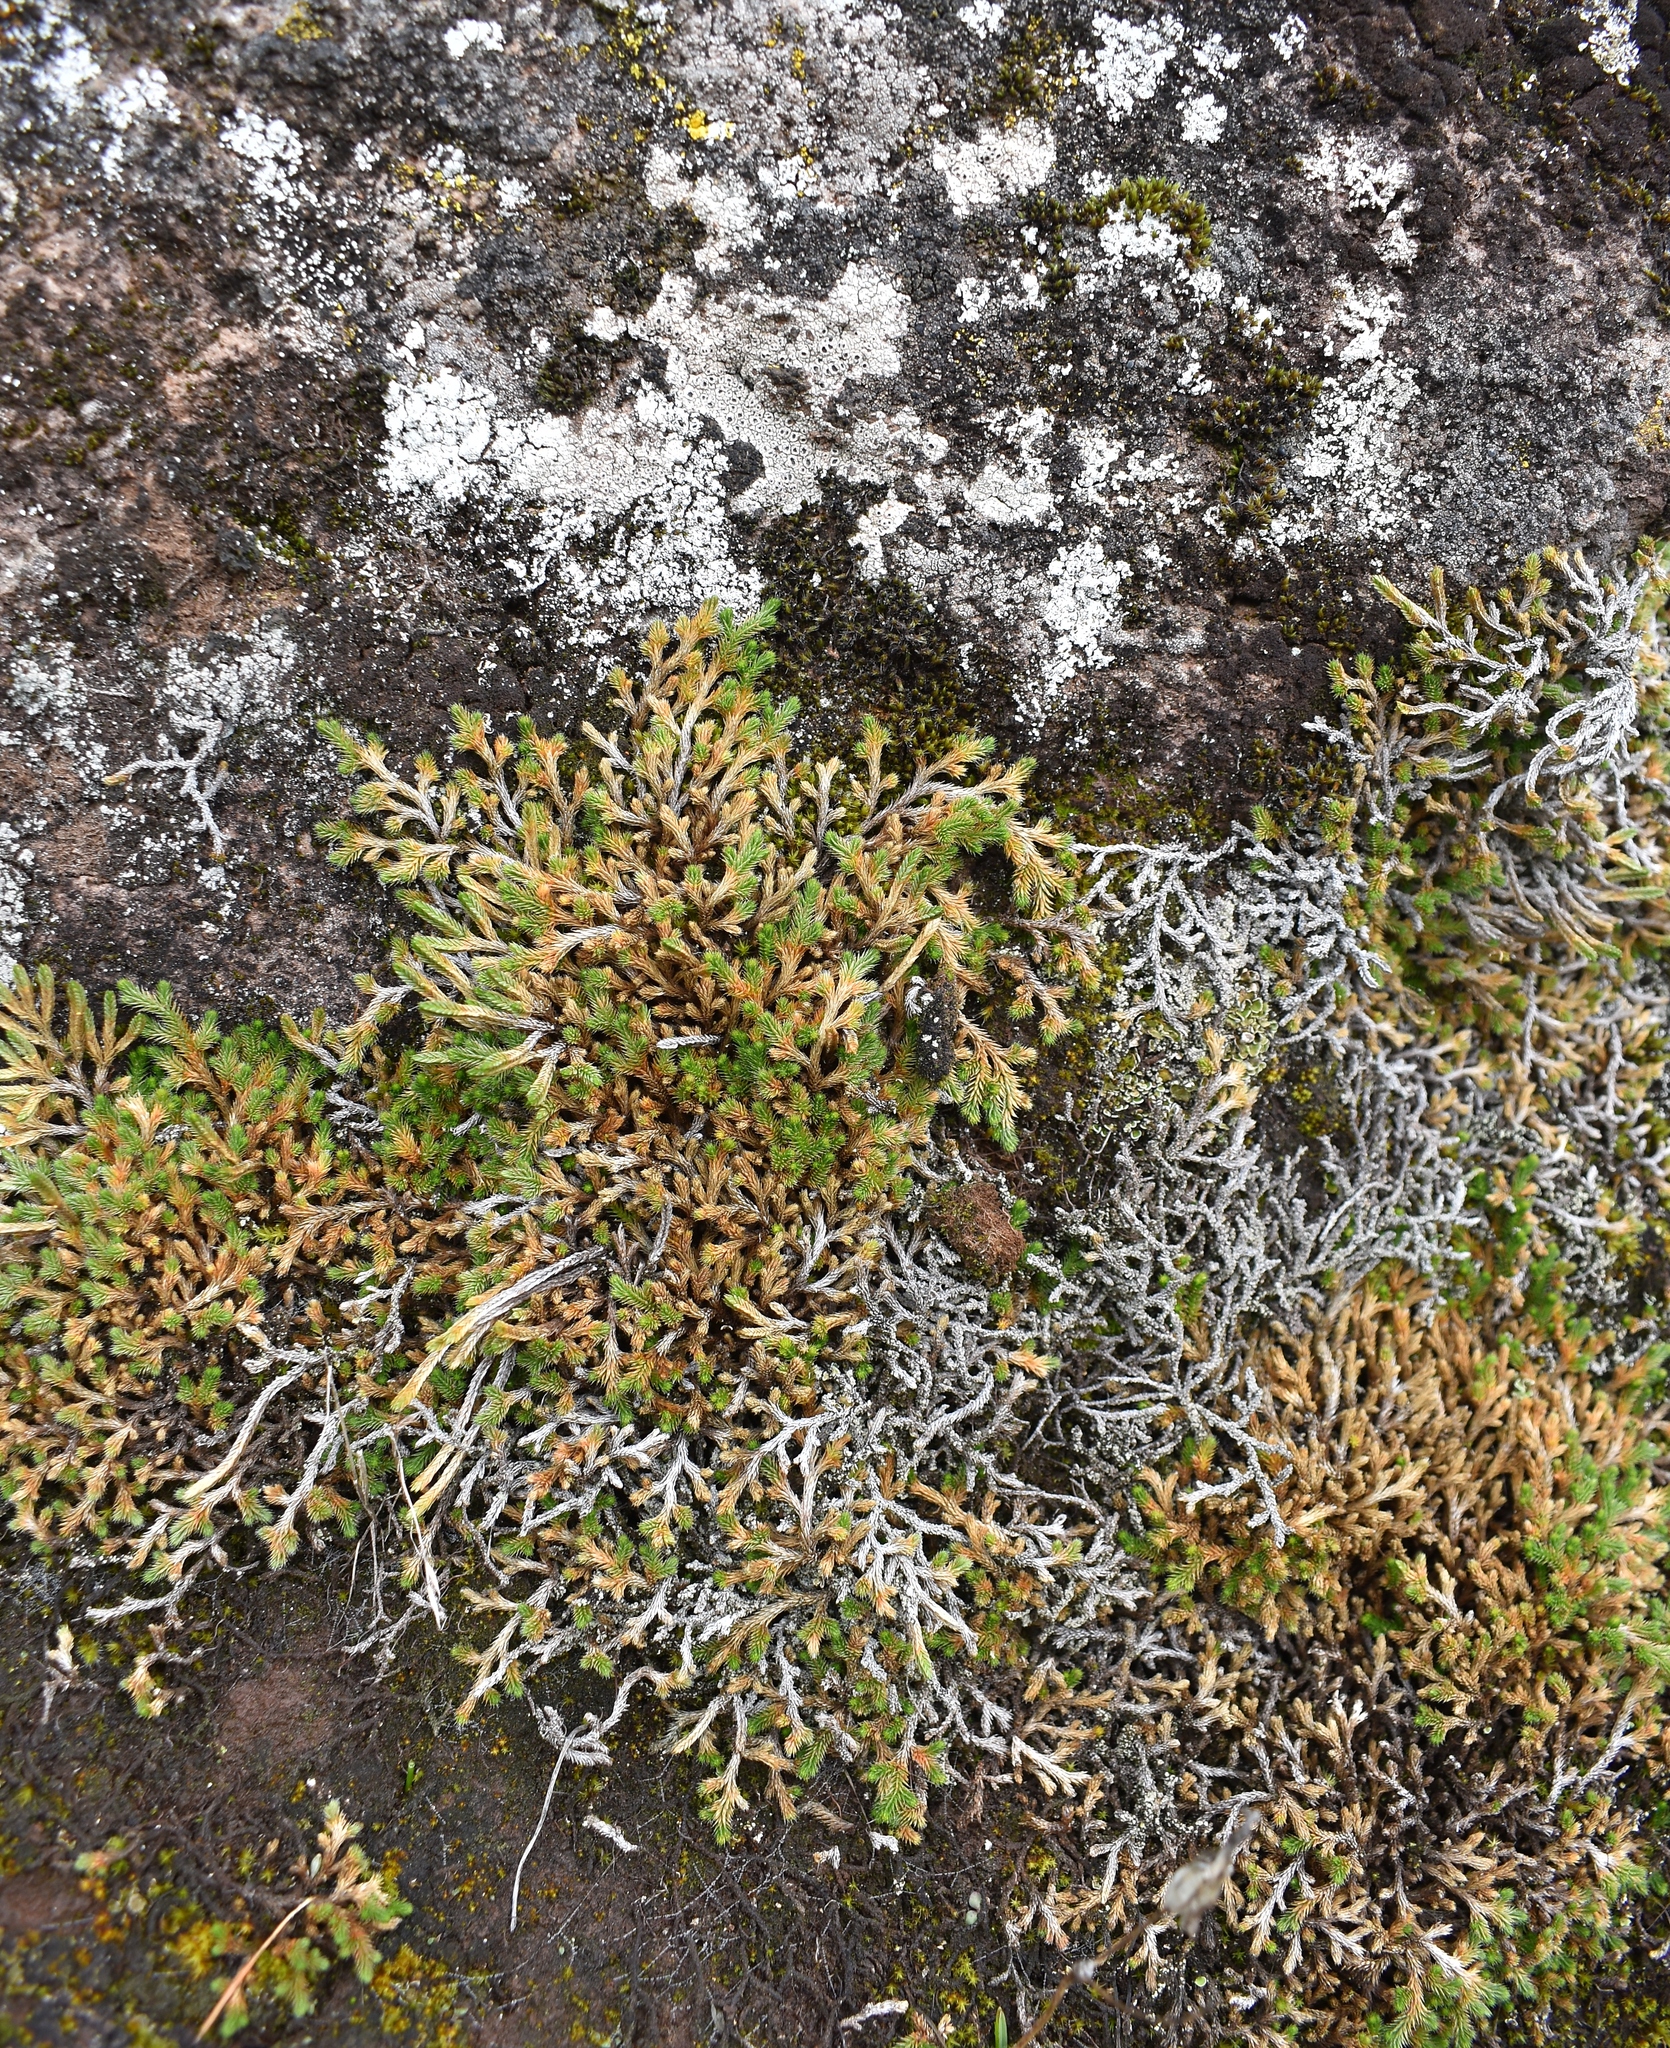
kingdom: Plantae
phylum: Tracheophyta
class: Lycopodiopsida
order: Selaginellales
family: Selaginellaceae
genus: Selaginella
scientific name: Selaginella wallacei
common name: Wallace's selaginella
